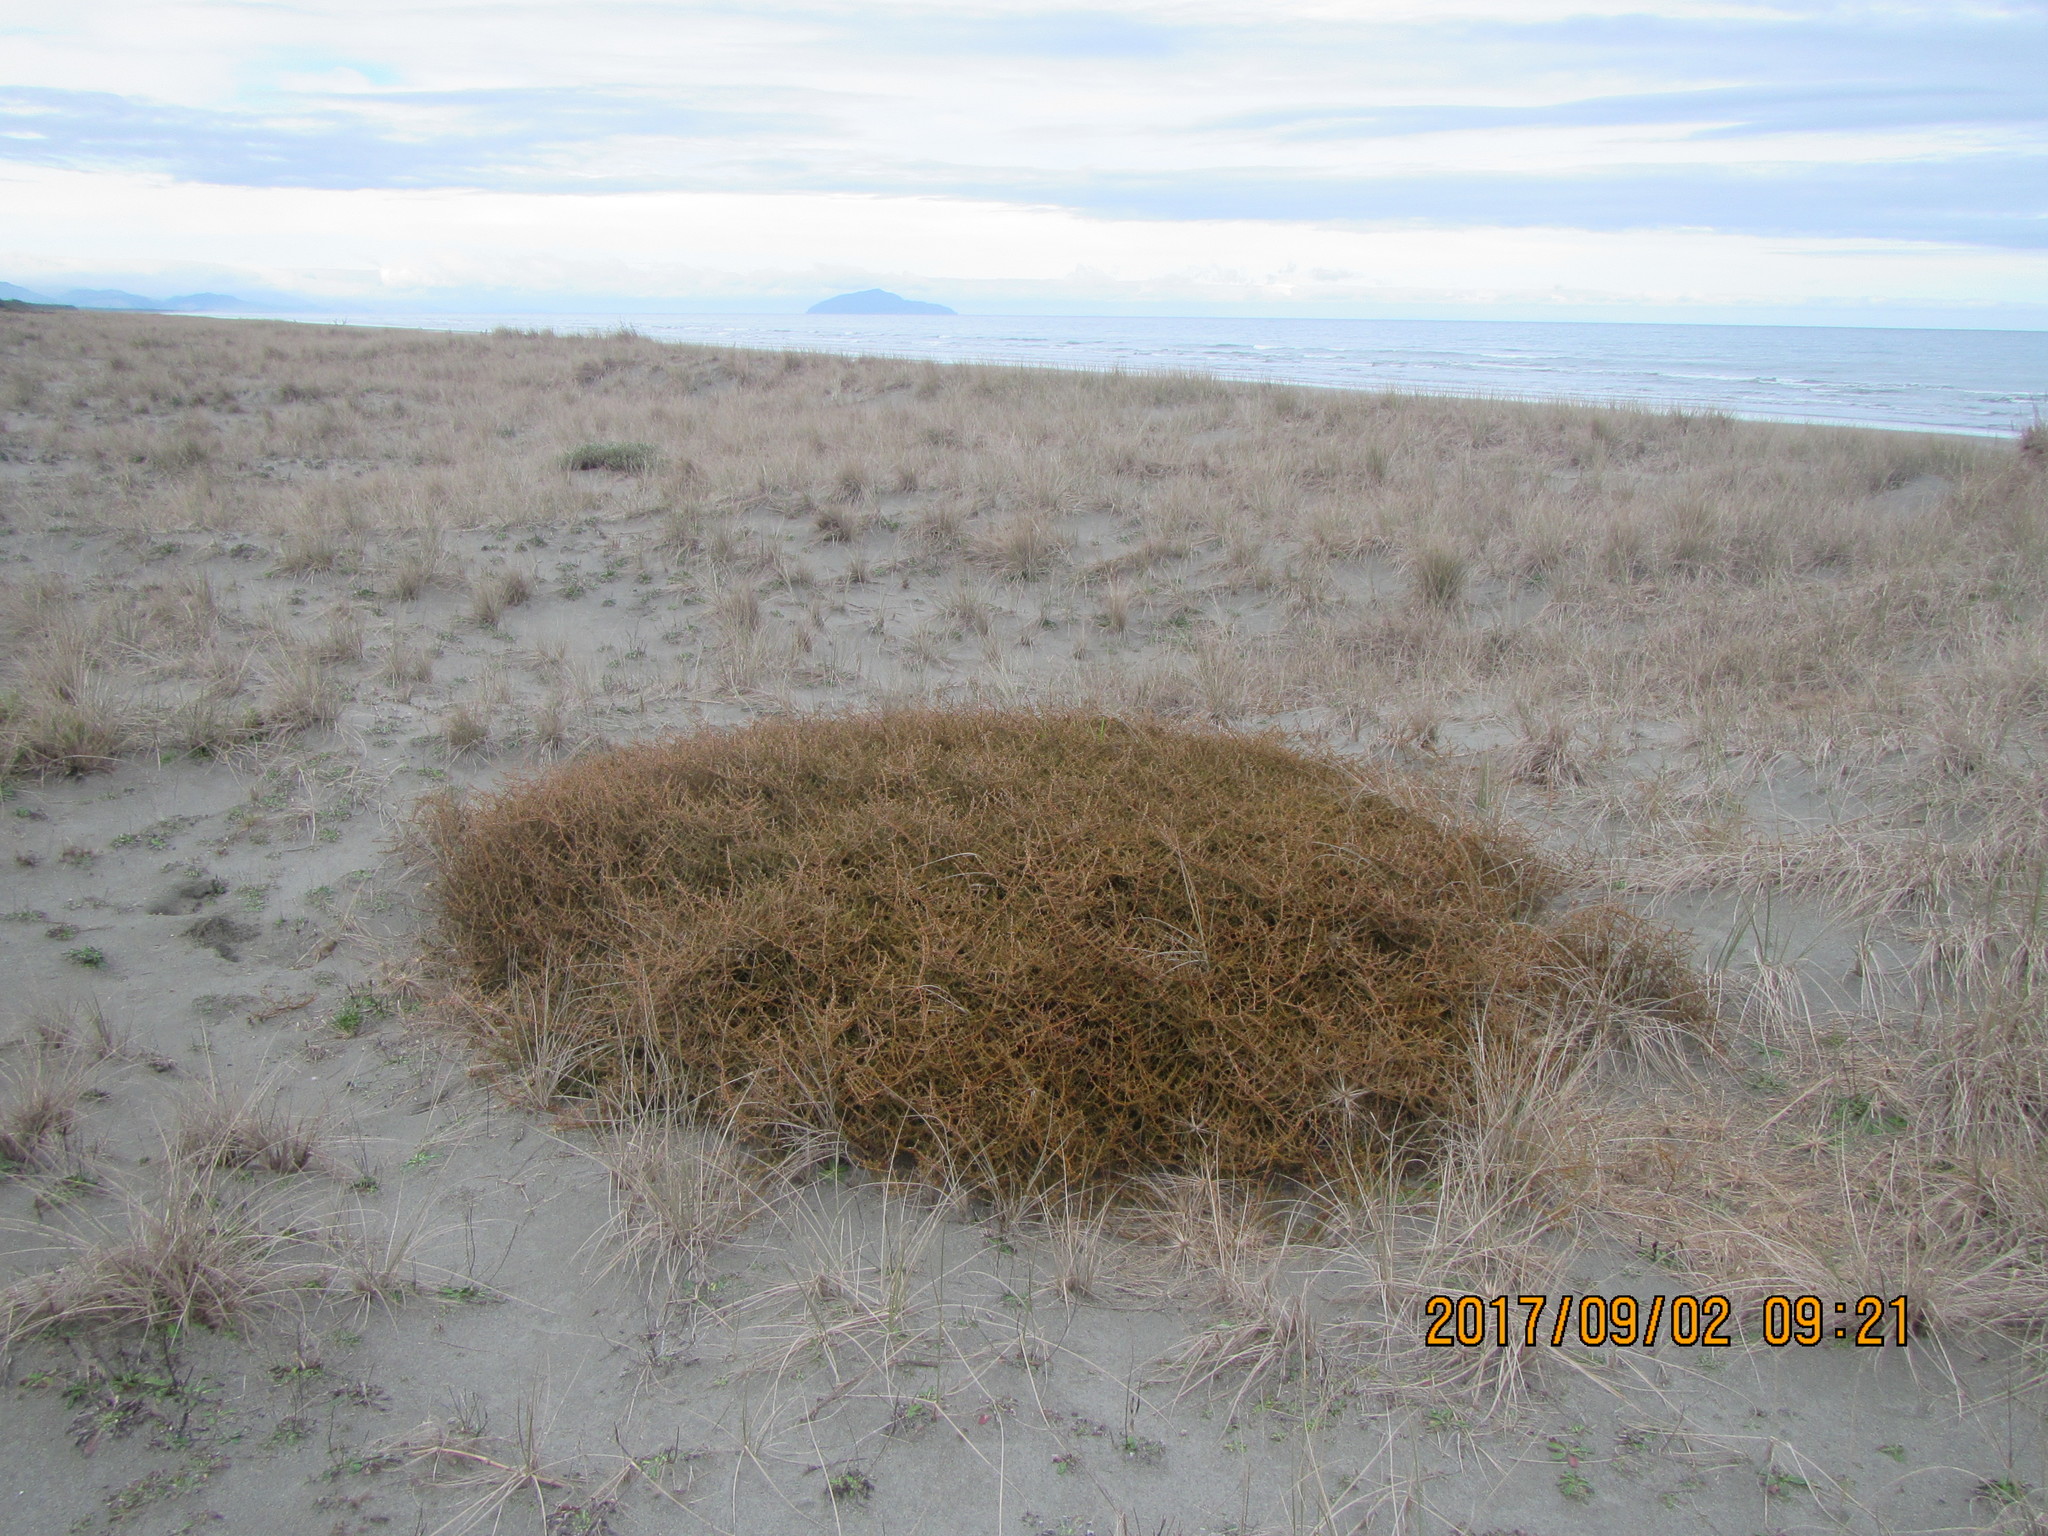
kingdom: Plantae
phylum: Tracheophyta
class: Magnoliopsida
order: Gentianales
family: Rubiaceae
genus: Coprosma
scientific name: Coprosma acerosa
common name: Sand coprosma
